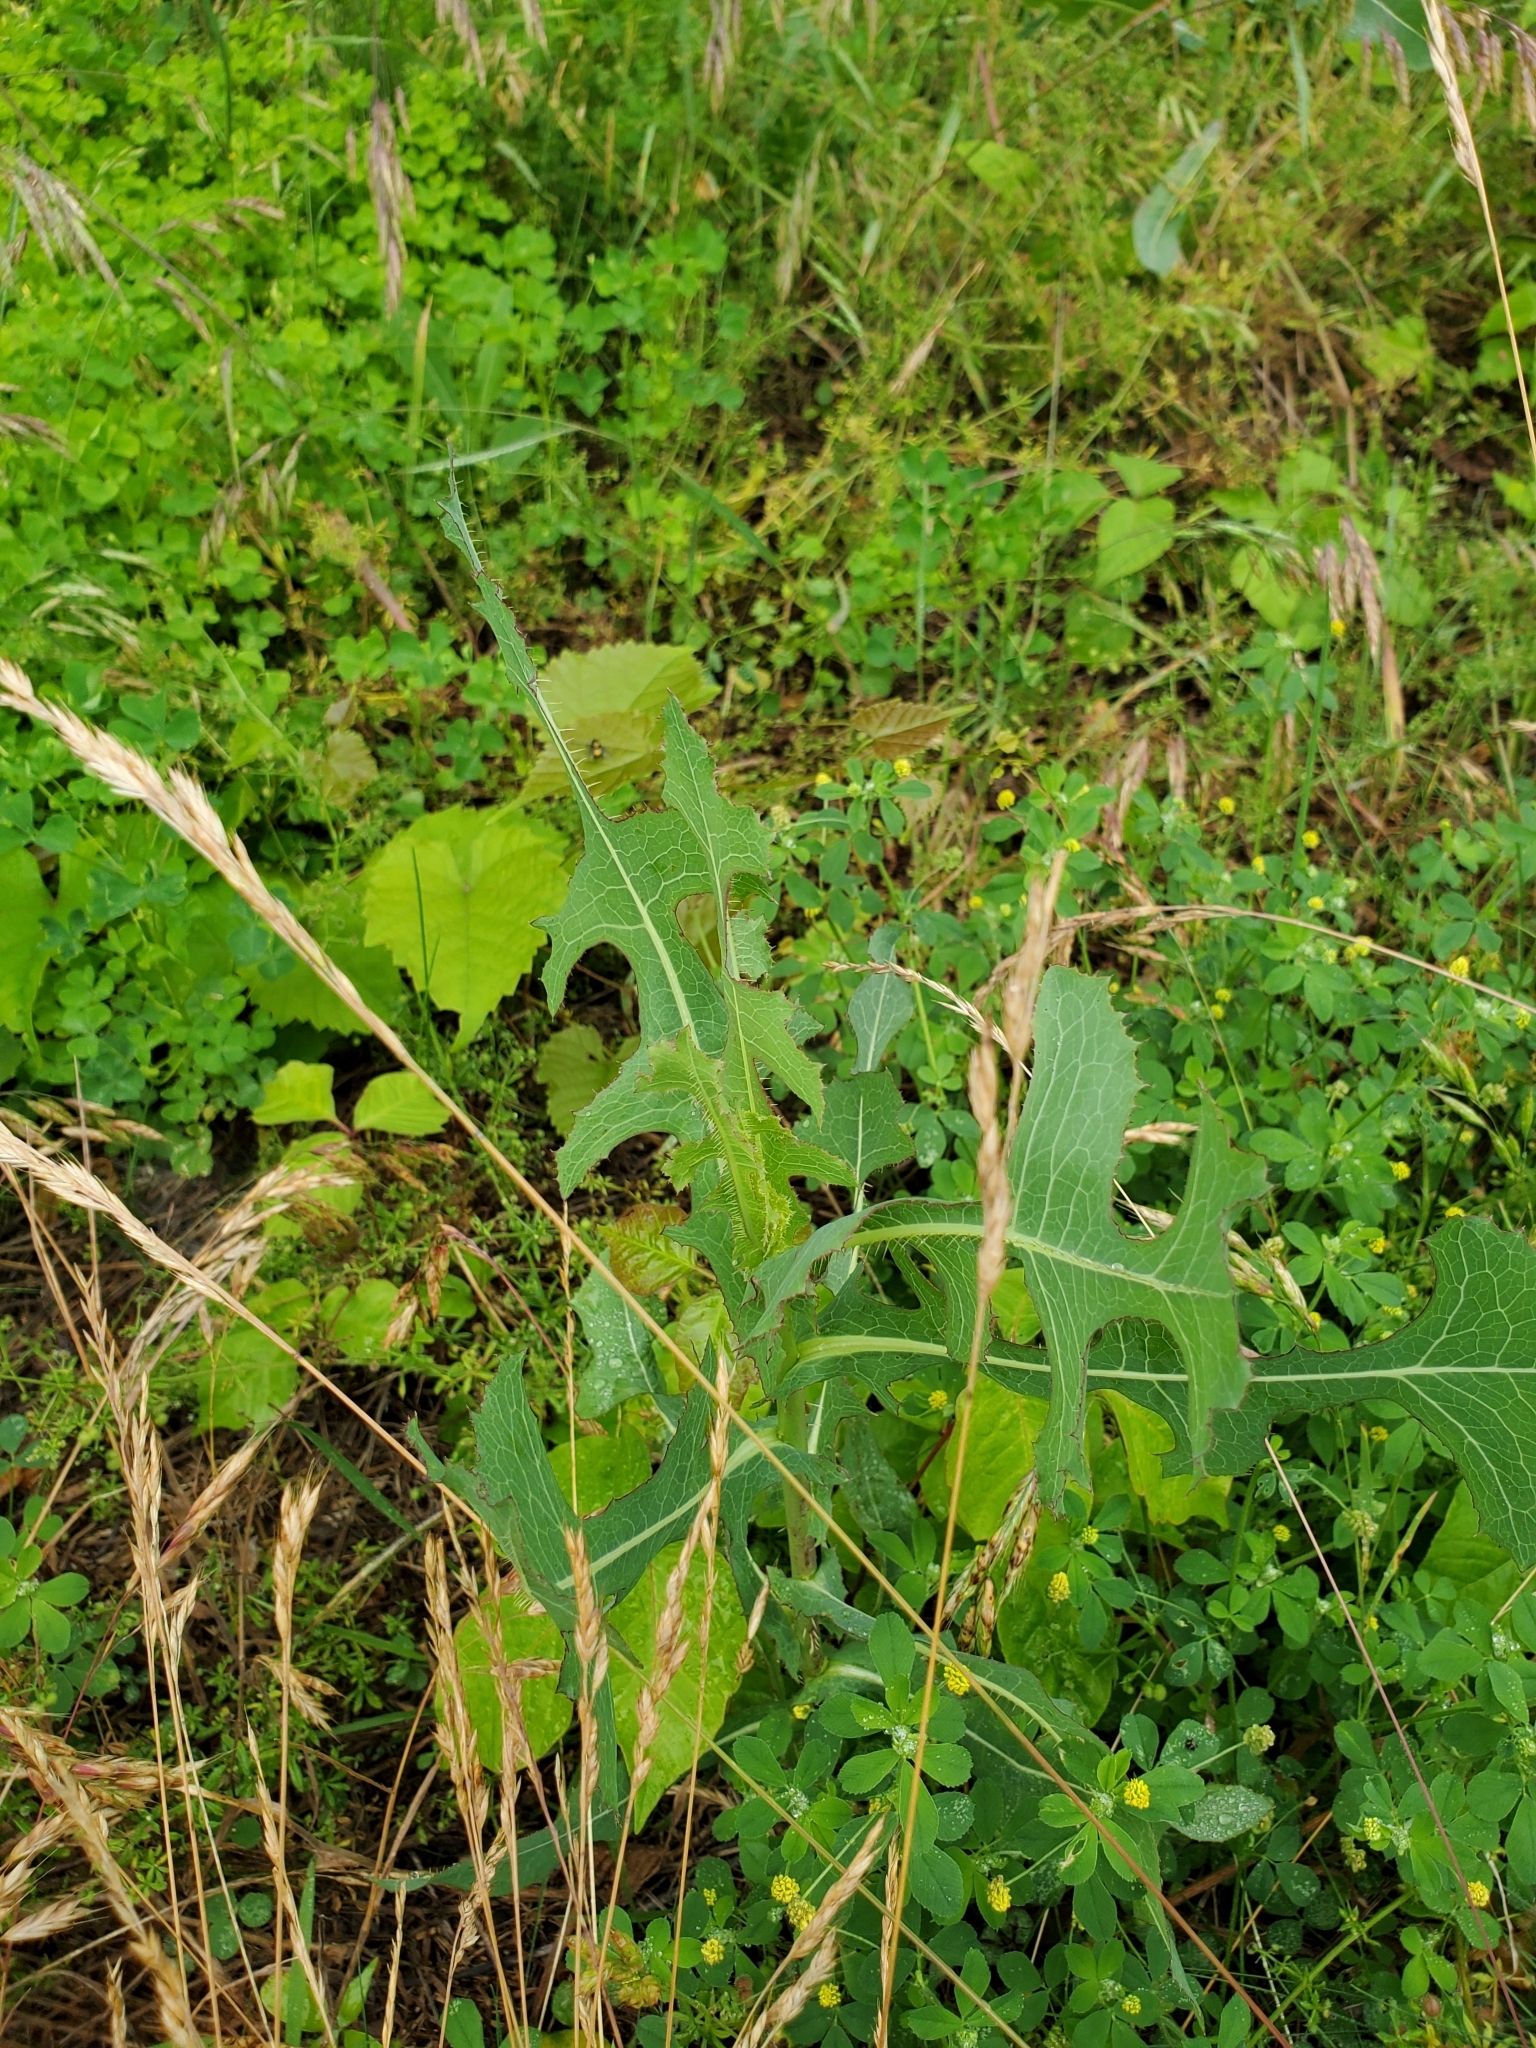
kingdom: Plantae
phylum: Tracheophyta
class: Magnoliopsida
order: Asterales
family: Asteraceae
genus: Lactuca
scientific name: Lactuca serriola
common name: Prickly lettuce
